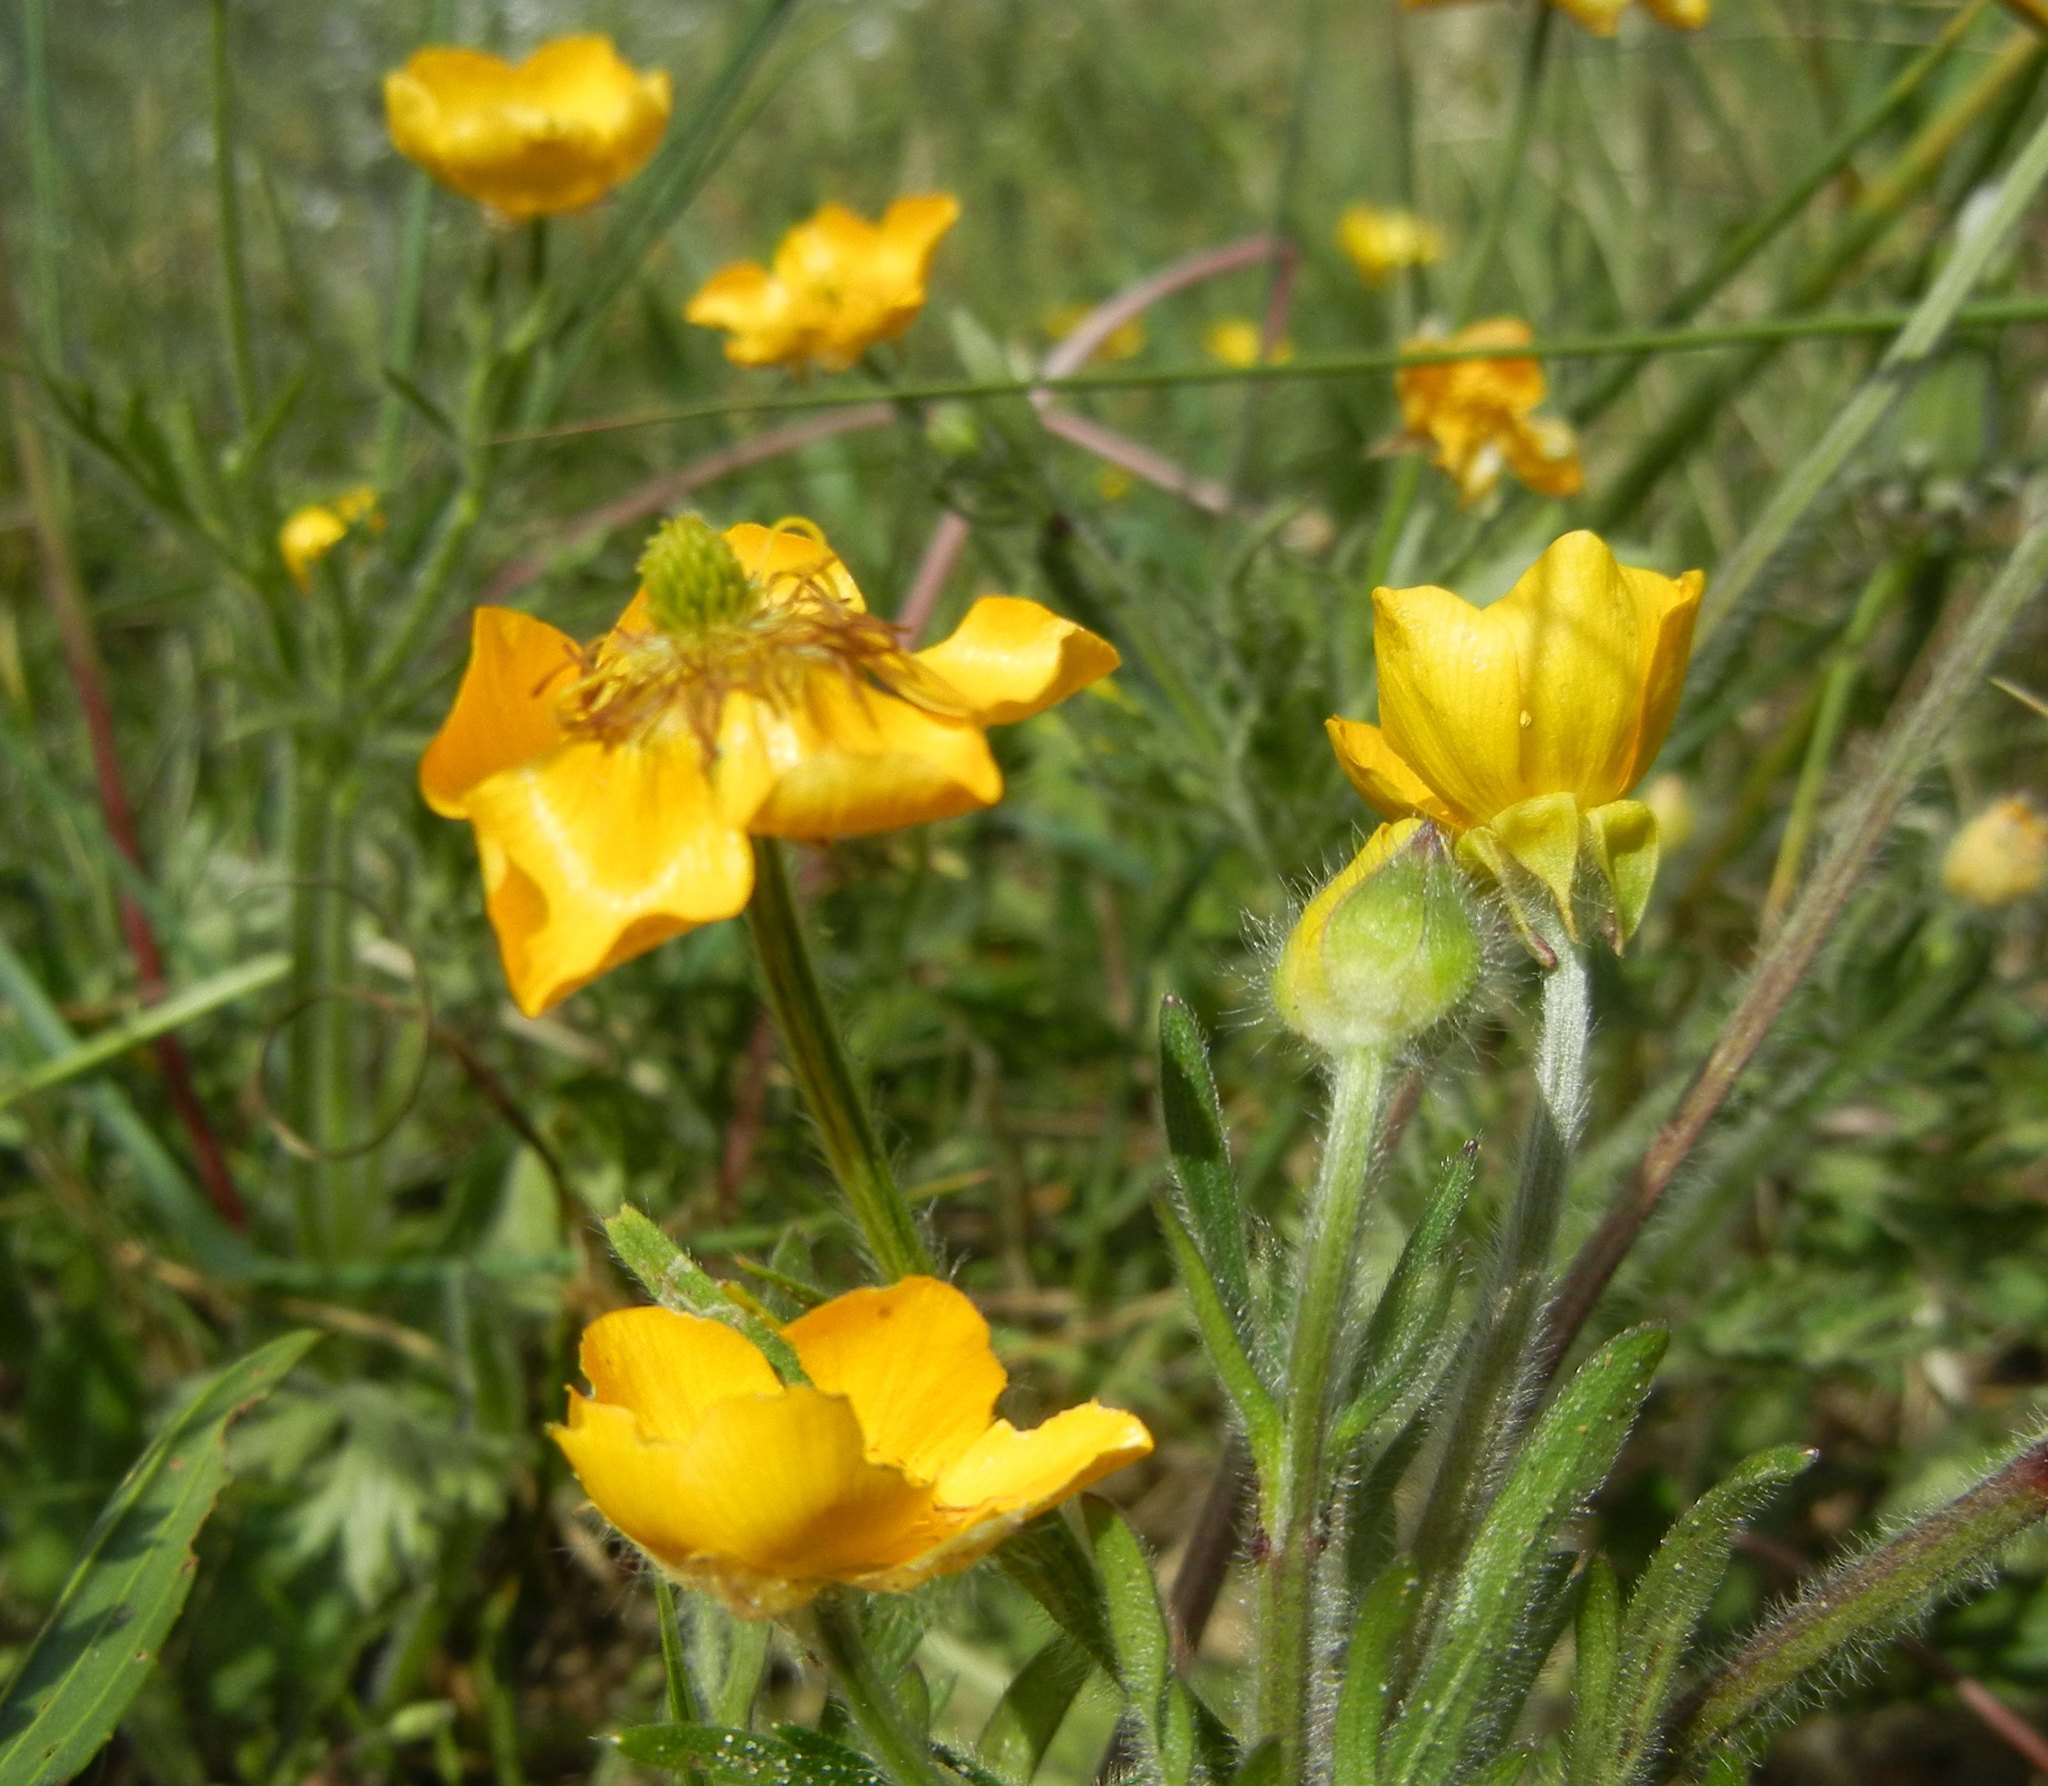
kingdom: Plantae
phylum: Tracheophyta
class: Magnoliopsida
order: Ranunculales
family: Ranunculaceae
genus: Ranunculus
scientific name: Ranunculus bulbosus
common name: Bulbous buttercup
